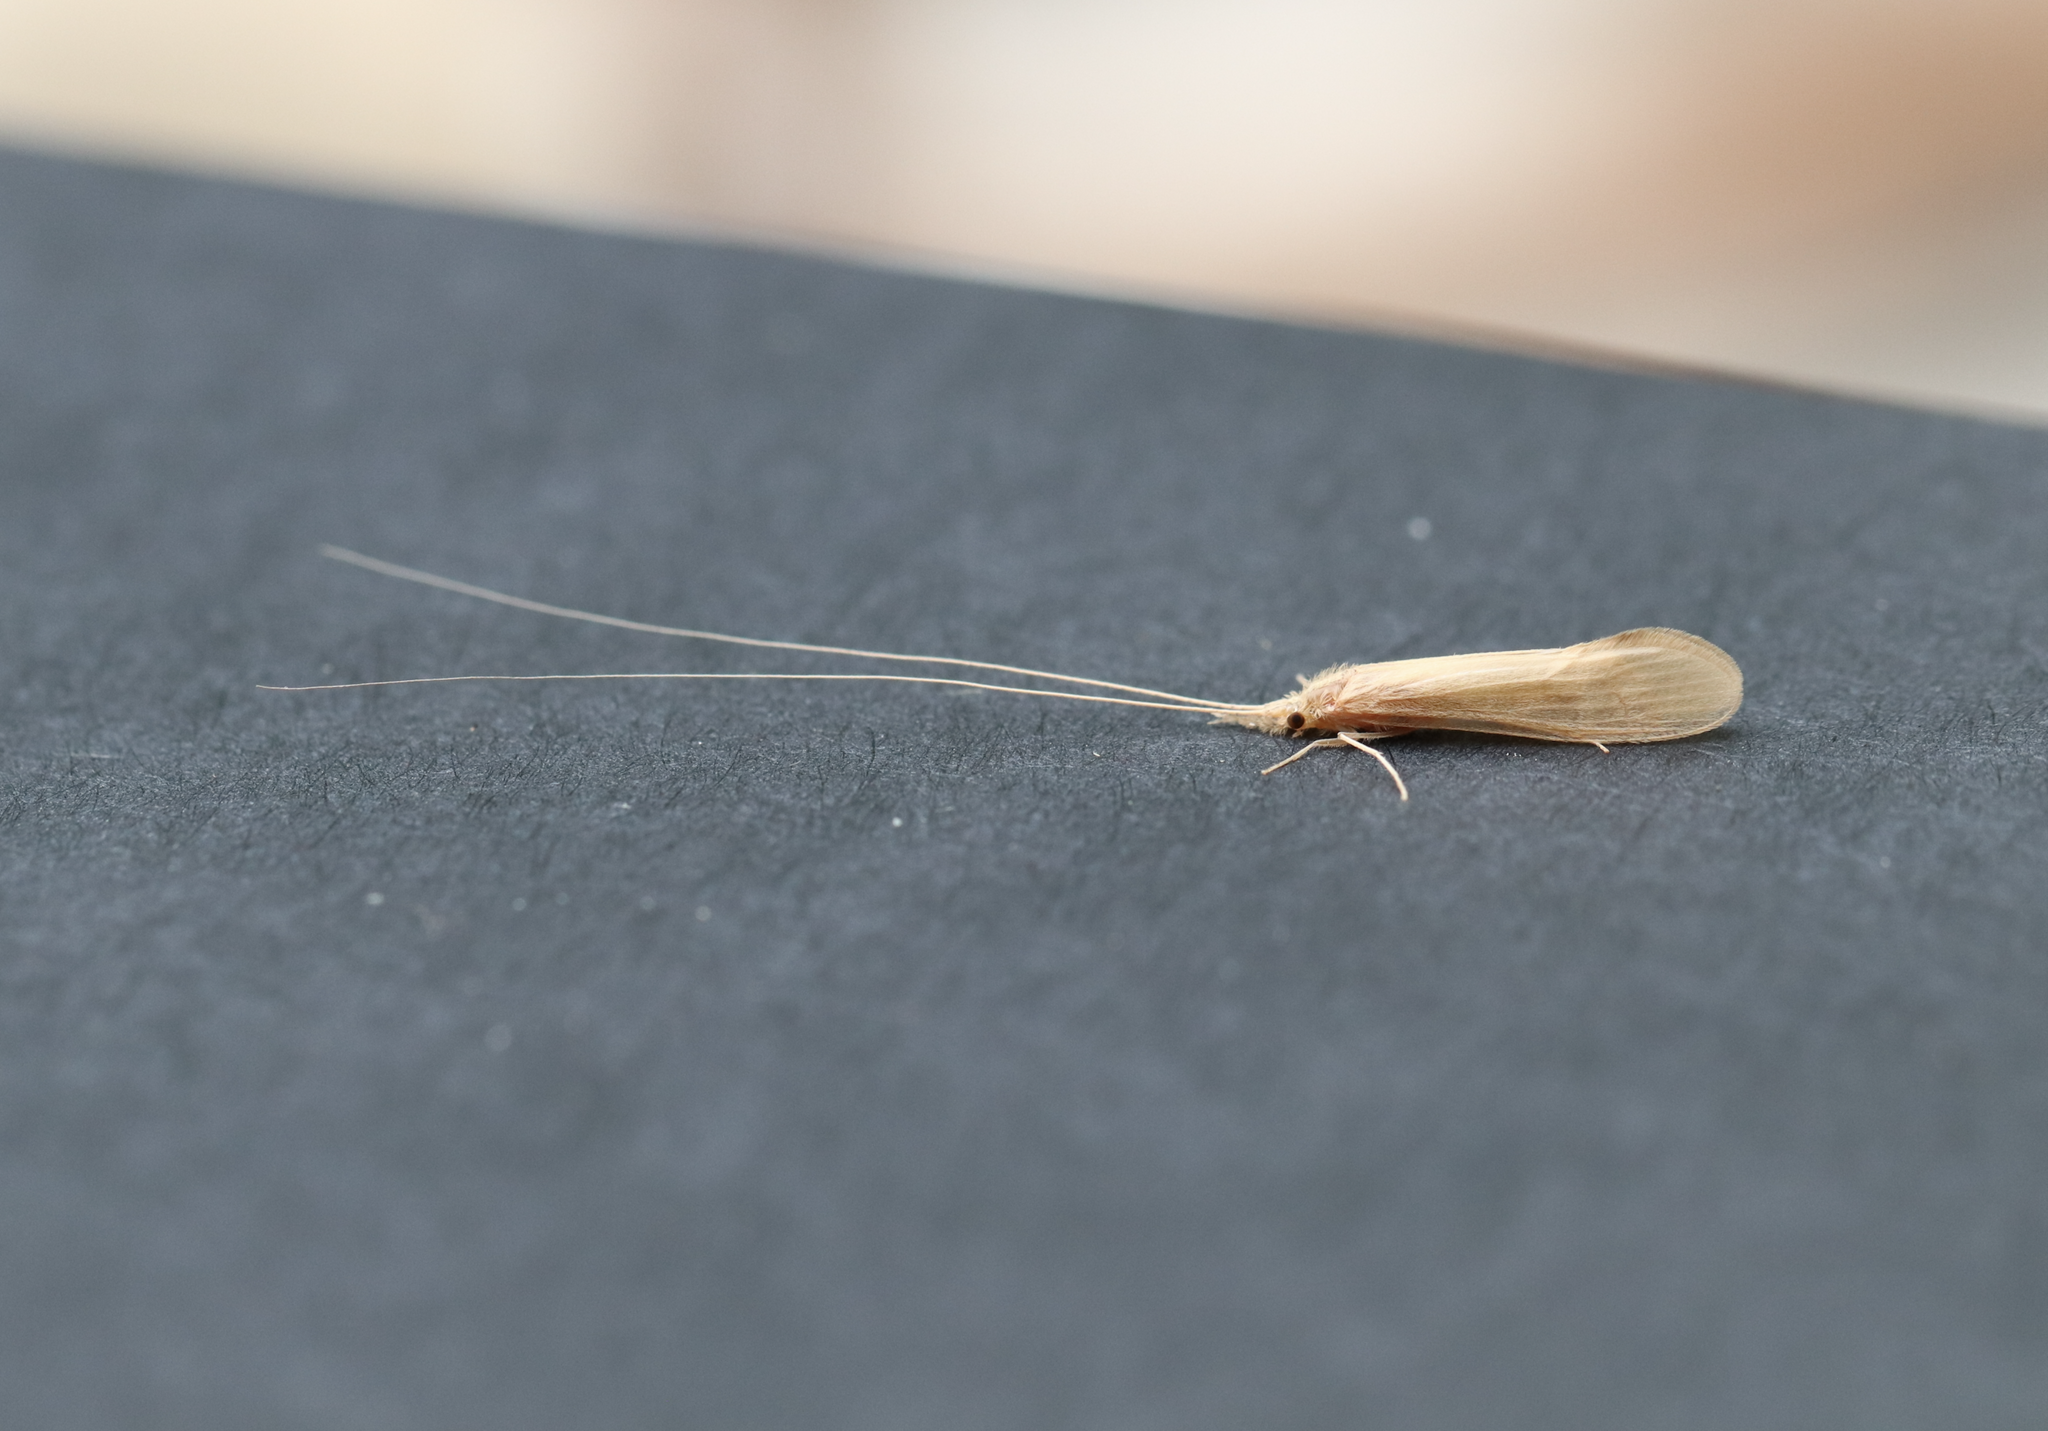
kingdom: Animalia
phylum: Arthropoda
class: Insecta
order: Trichoptera
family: Leptoceridae
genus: Oecetis
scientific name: Oecetis ochracea
